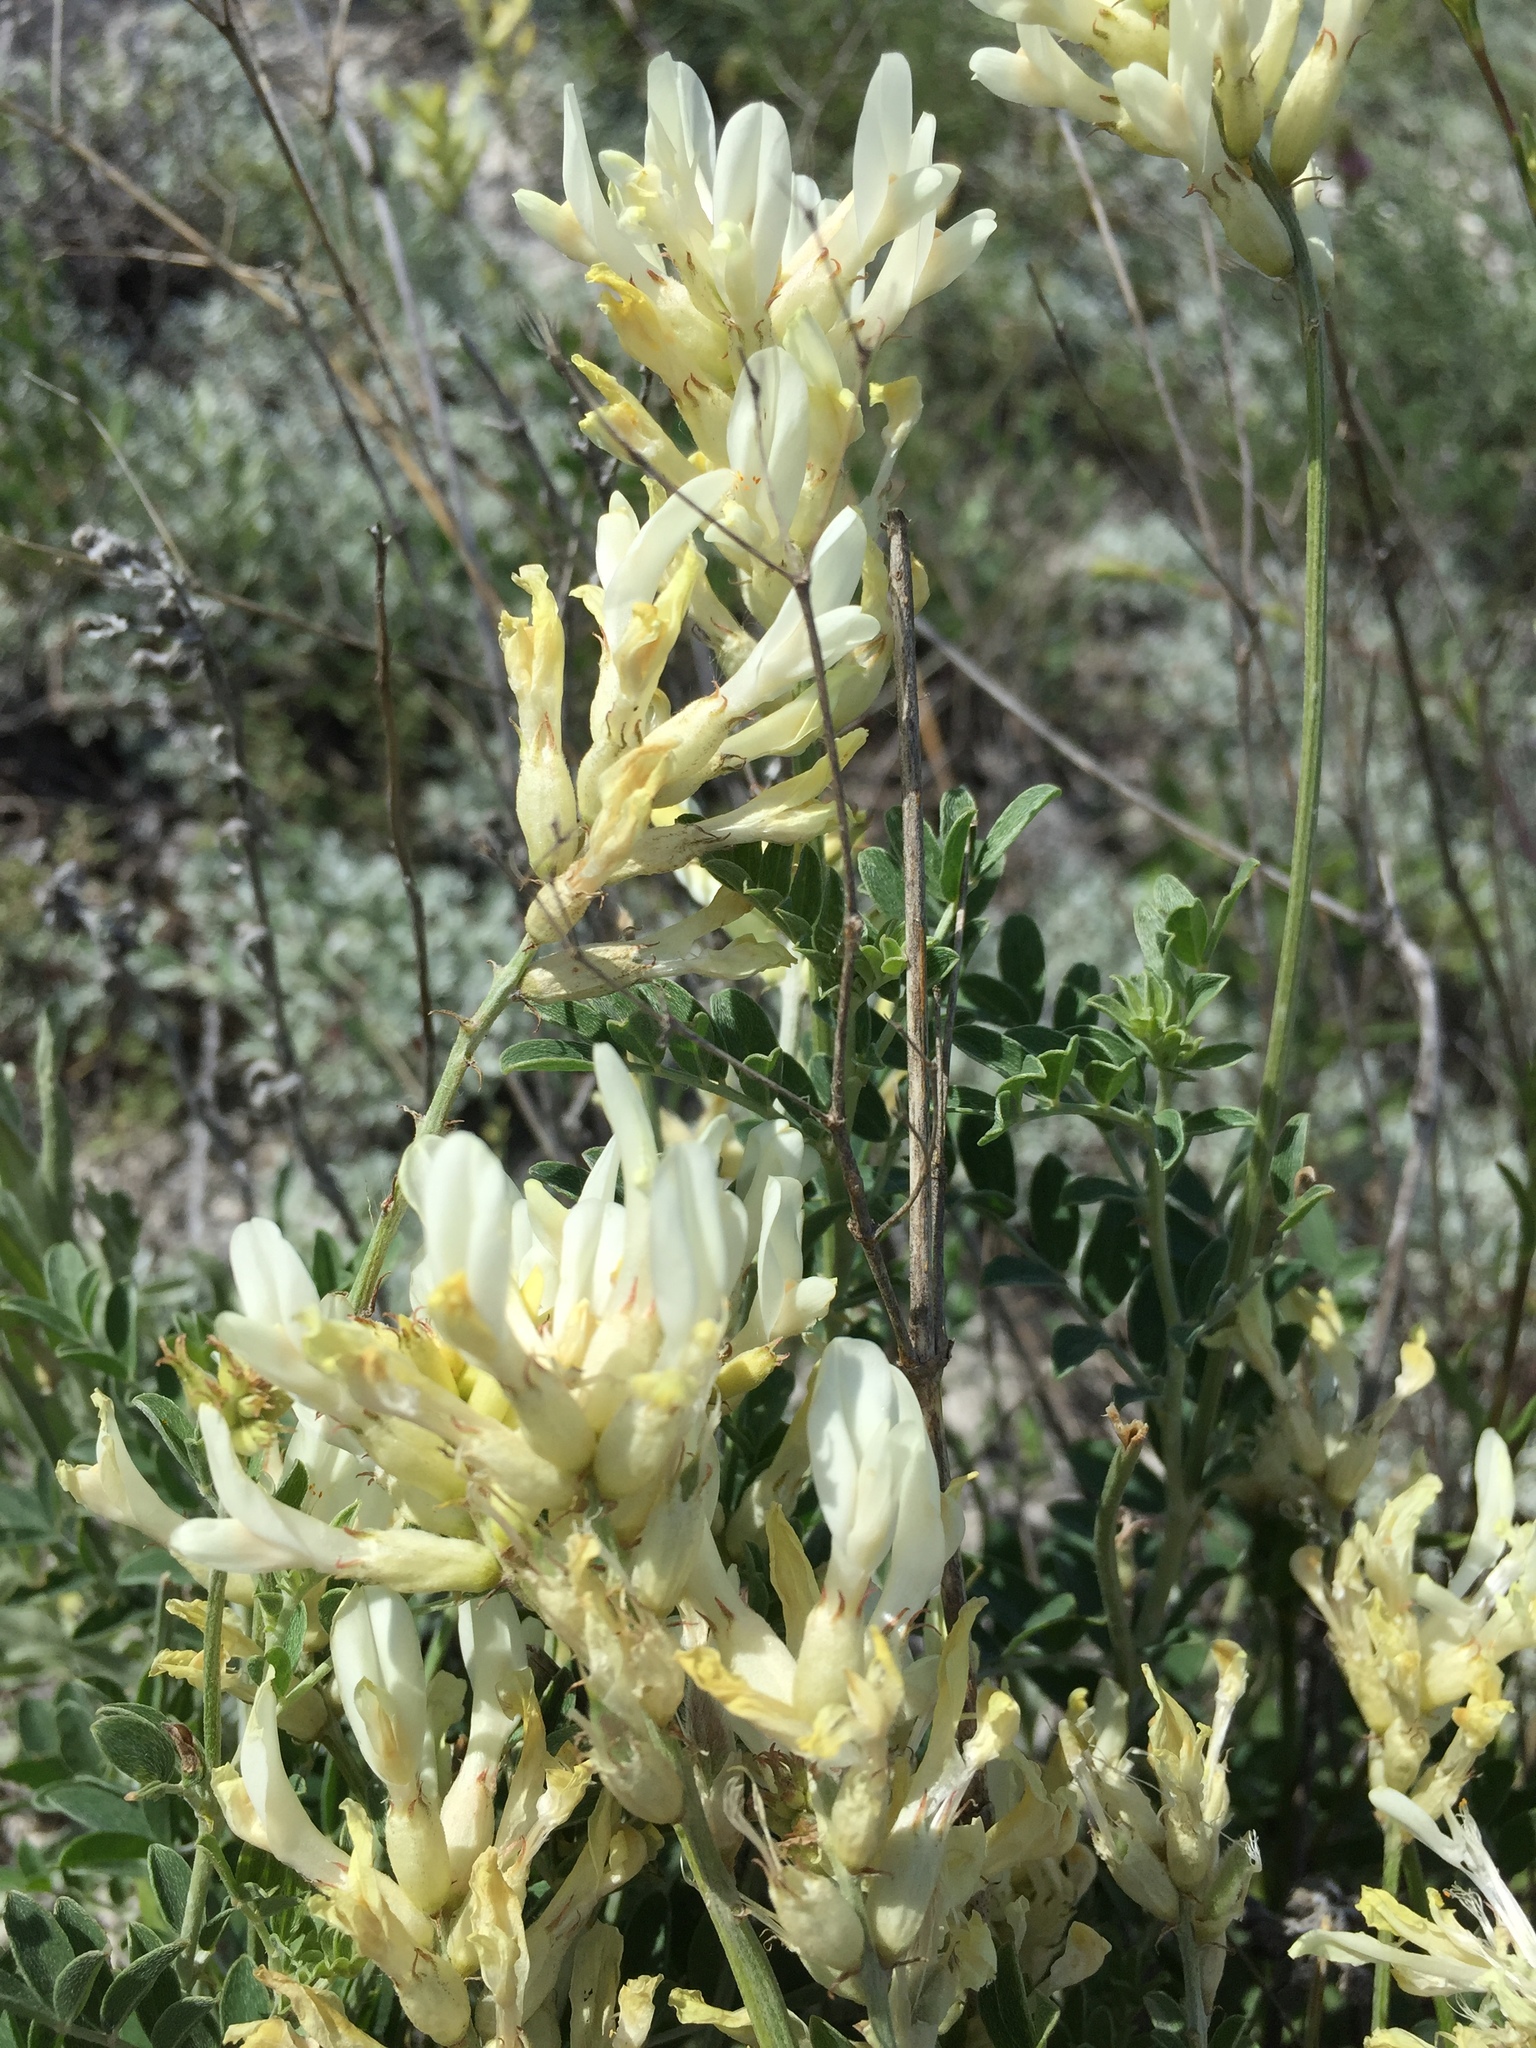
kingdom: Plantae
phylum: Tracheophyta
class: Magnoliopsida
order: Fabales
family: Fabaceae
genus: Astragalus
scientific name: Astragalus albicaulis
